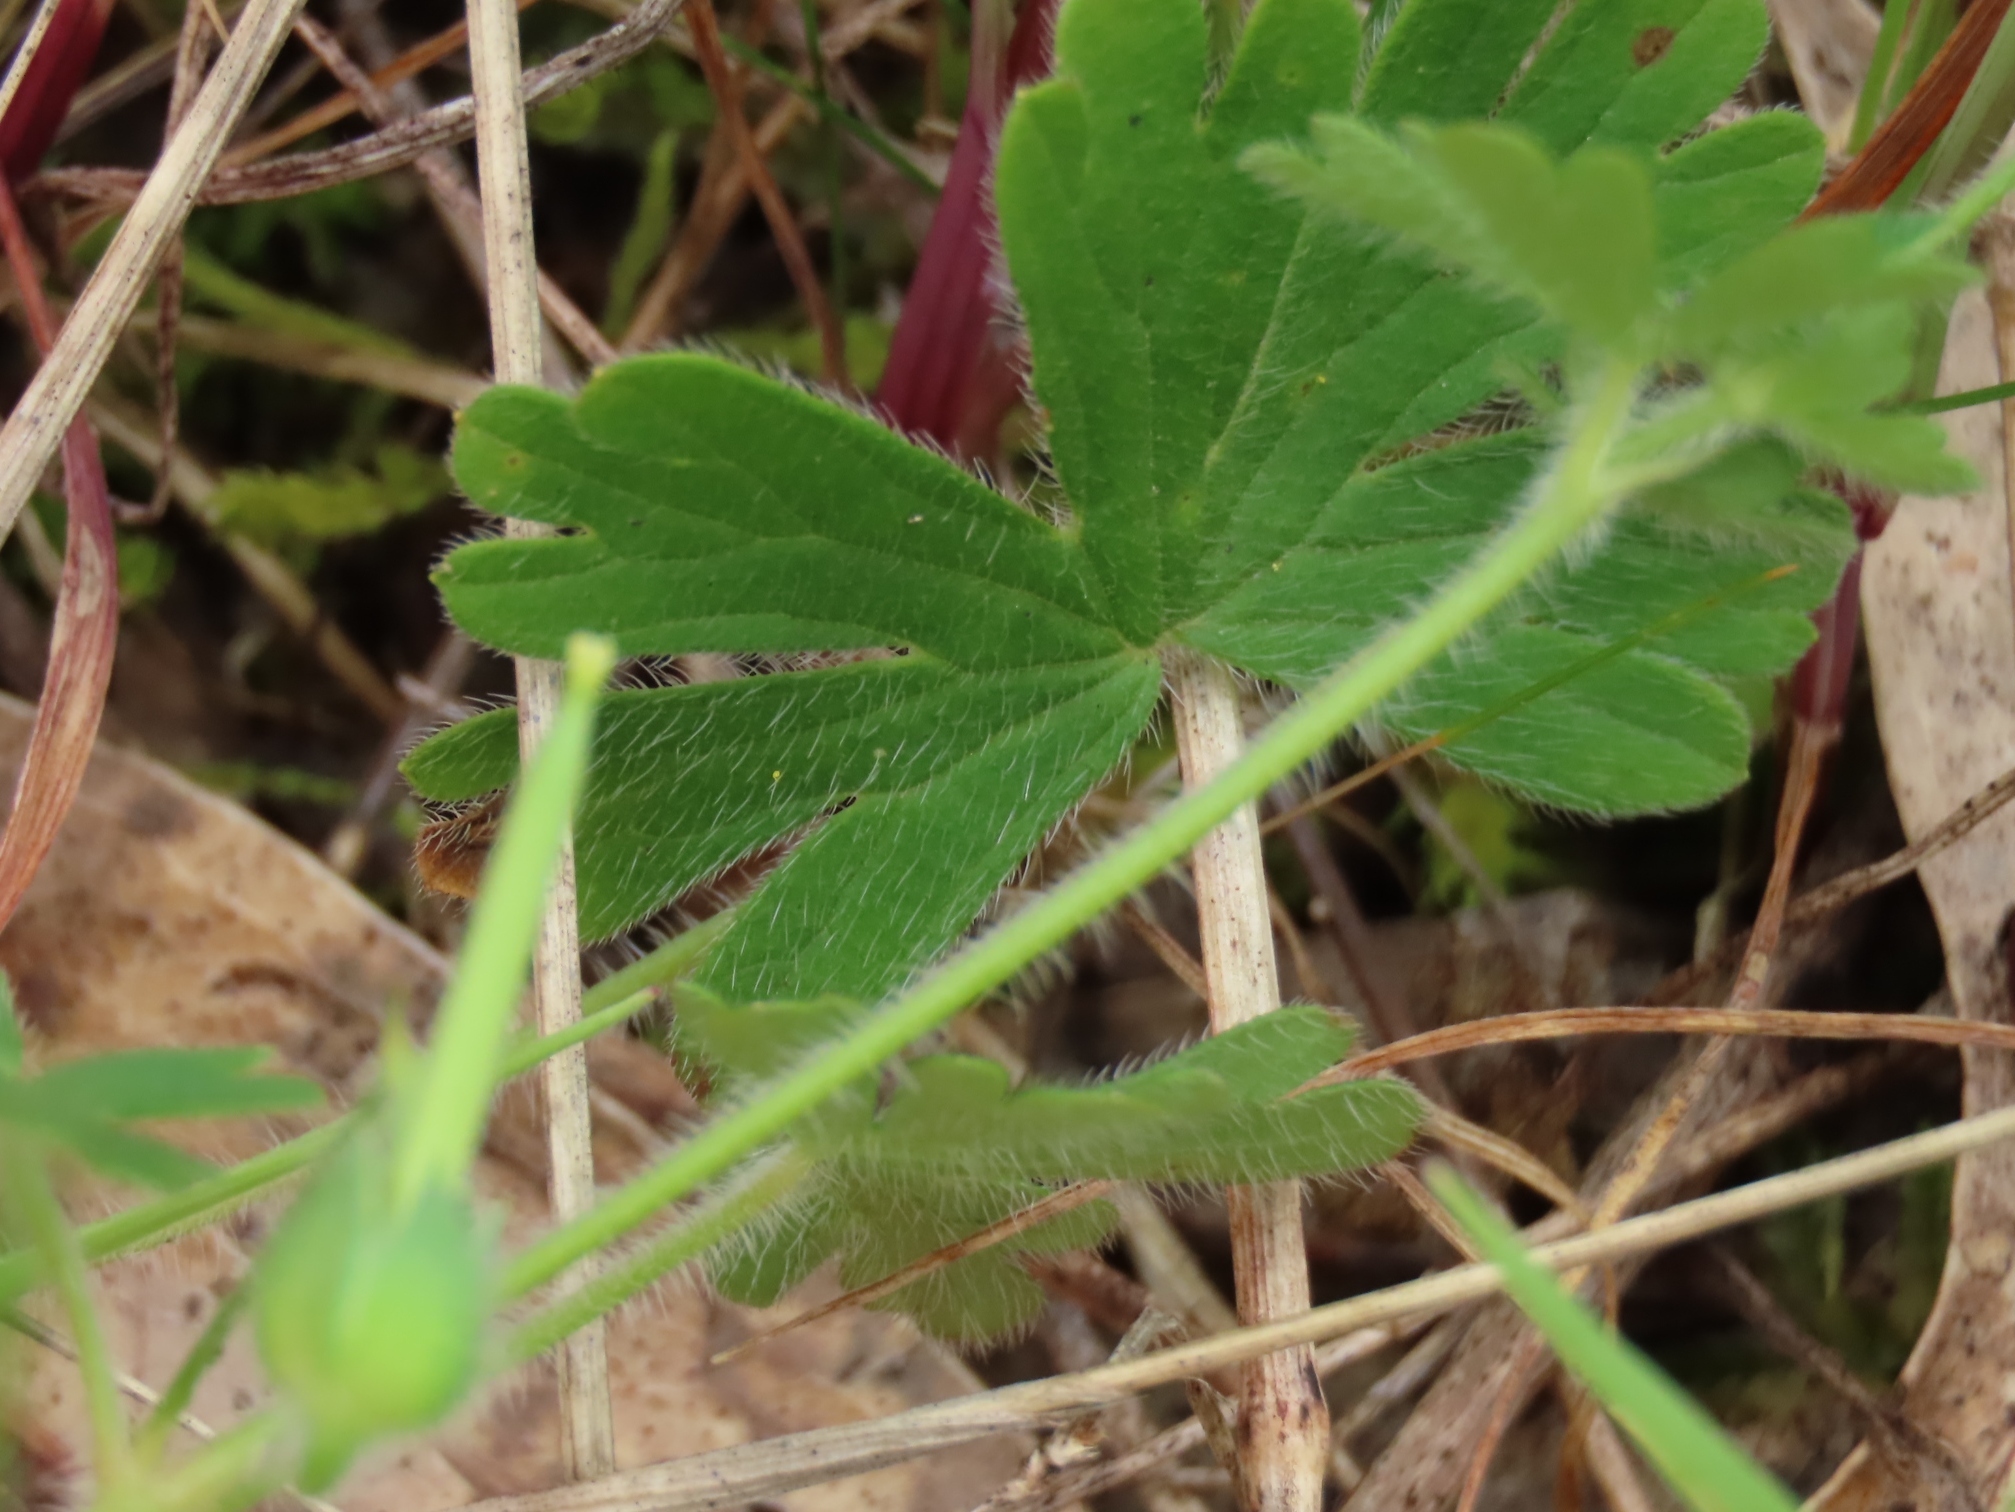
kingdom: Plantae
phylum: Tracheophyta
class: Magnoliopsida
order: Geraniales
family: Geraniaceae
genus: Geranium
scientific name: Geranium solanderi
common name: Solander's geranium
